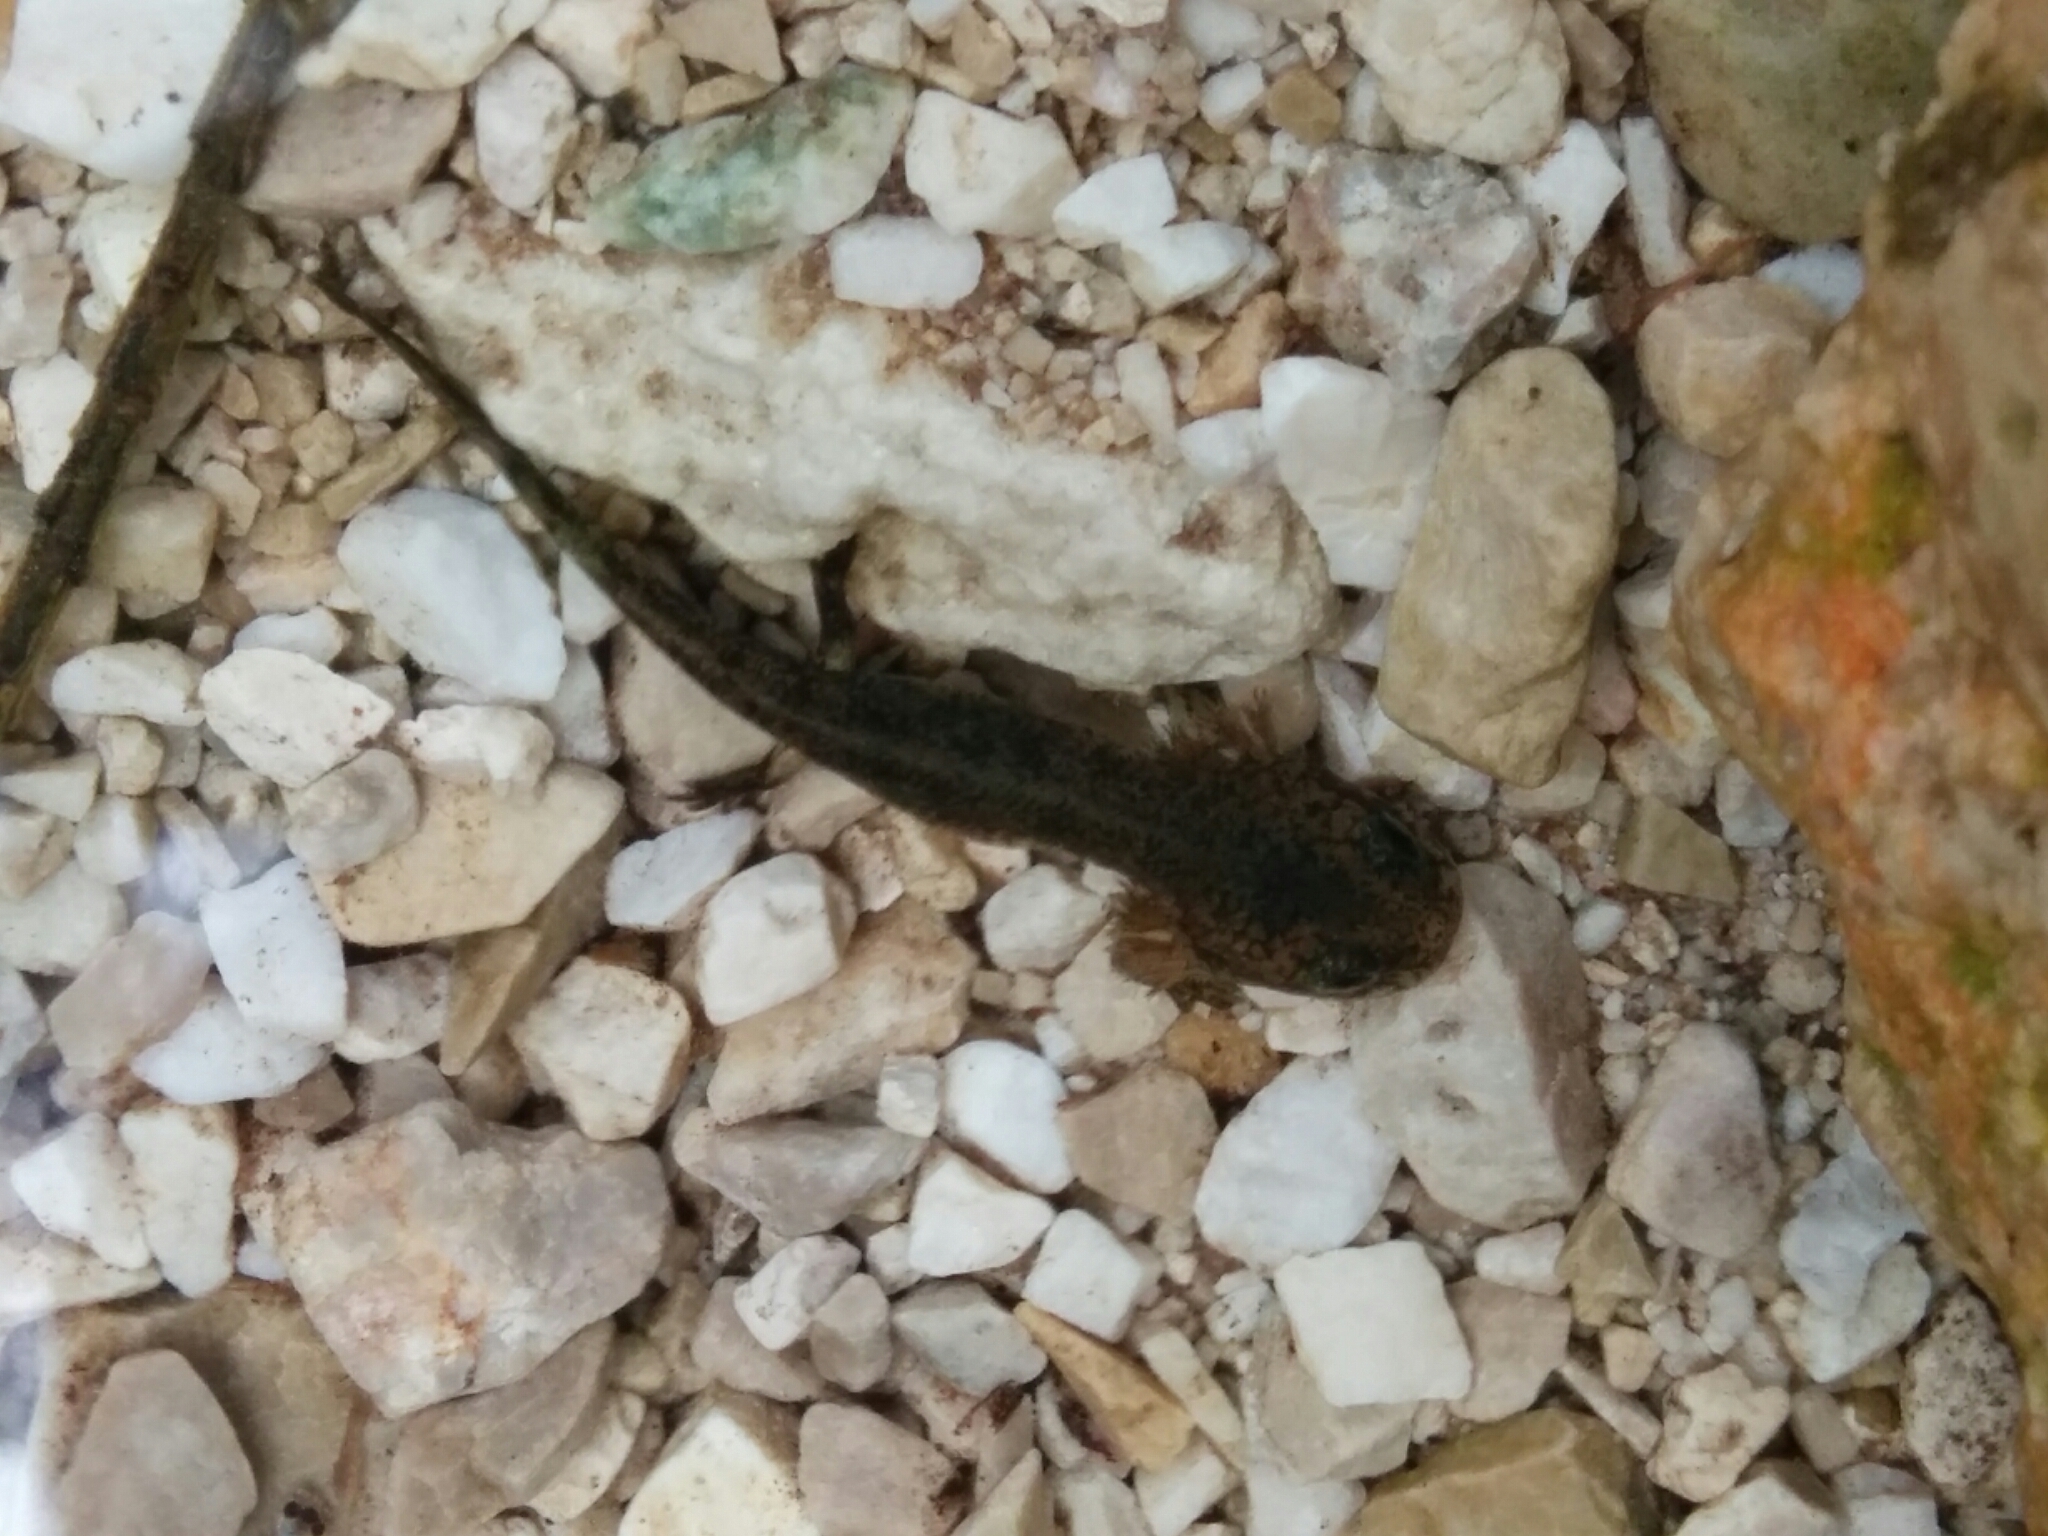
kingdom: Animalia
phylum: Chordata
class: Amphibia
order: Caudata
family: Salamandridae
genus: Salamandra
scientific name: Salamandra salamandra
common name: Fire salamander
